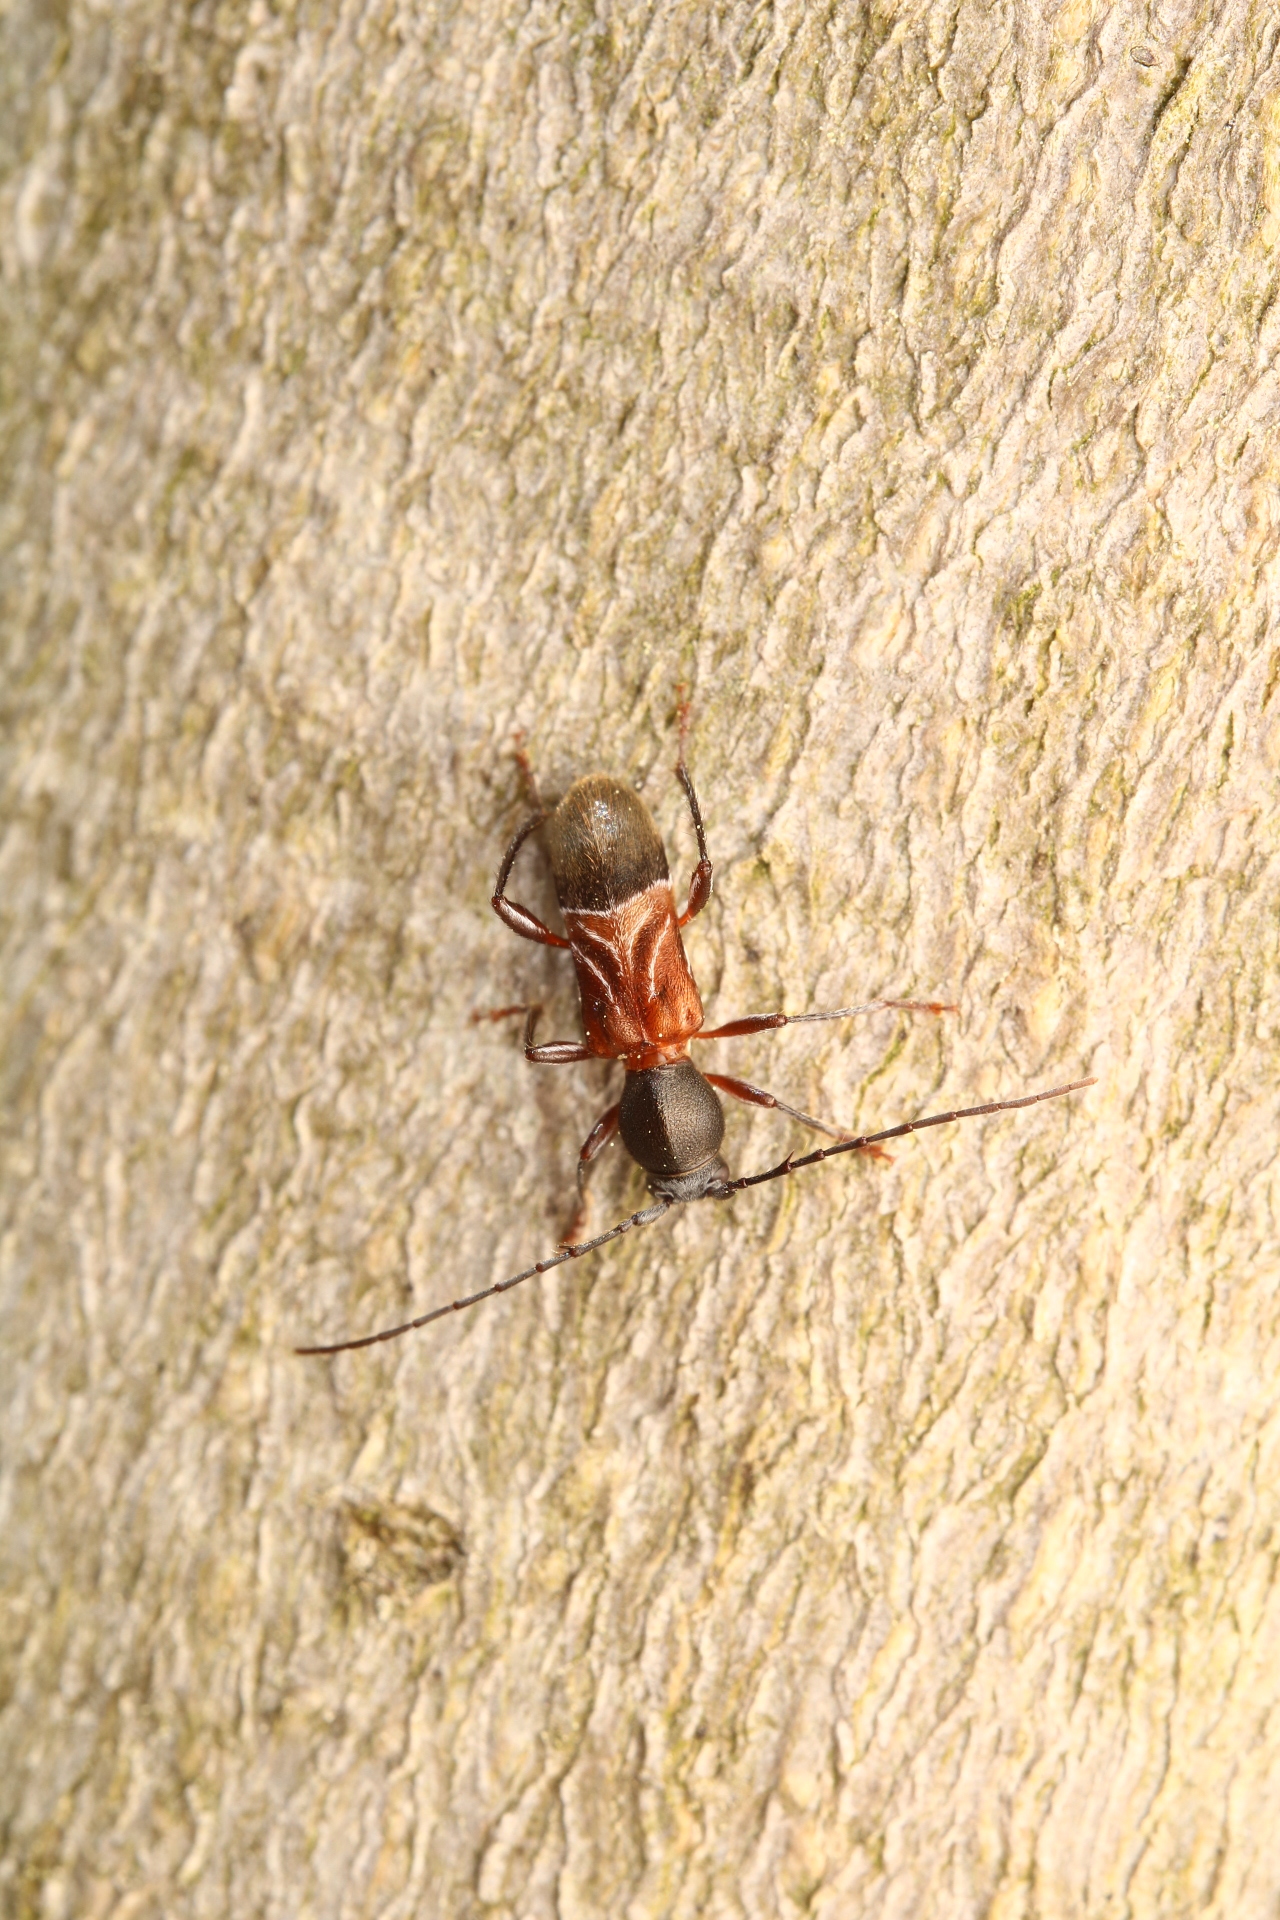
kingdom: Animalia
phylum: Arthropoda
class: Insecta
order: Coleoptera
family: Cerambycidae
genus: Cyrtophorus
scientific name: Cyrtophorus verrucosus
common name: Ant-like longhorn beetle
